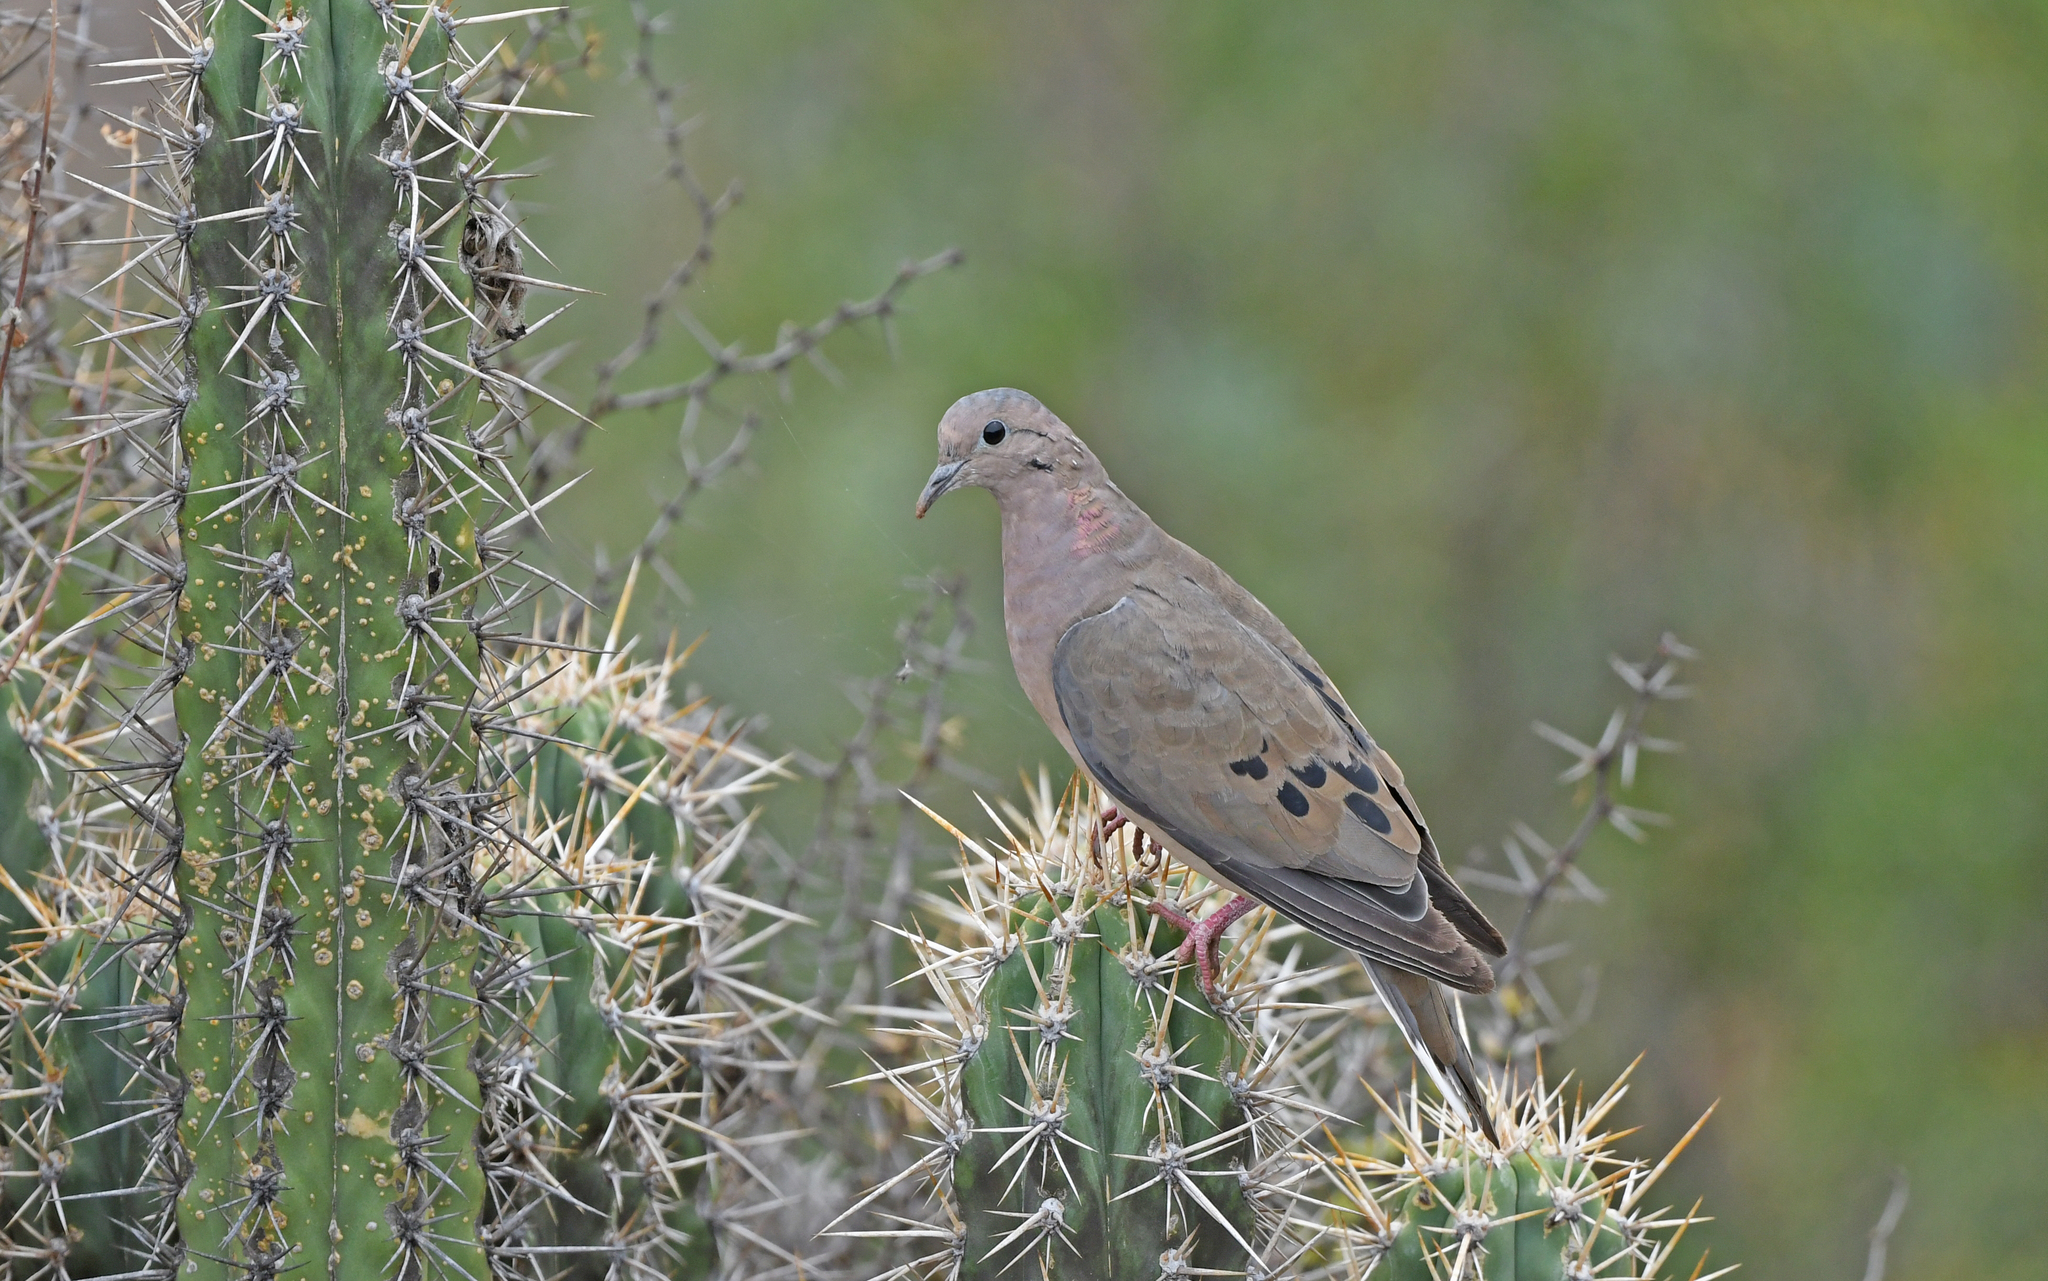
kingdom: Animalia
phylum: Chordata
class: Aves
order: Columbiformes
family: Columbidae
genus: Zenaida
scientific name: Zenaida auriculata
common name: Eared dove
